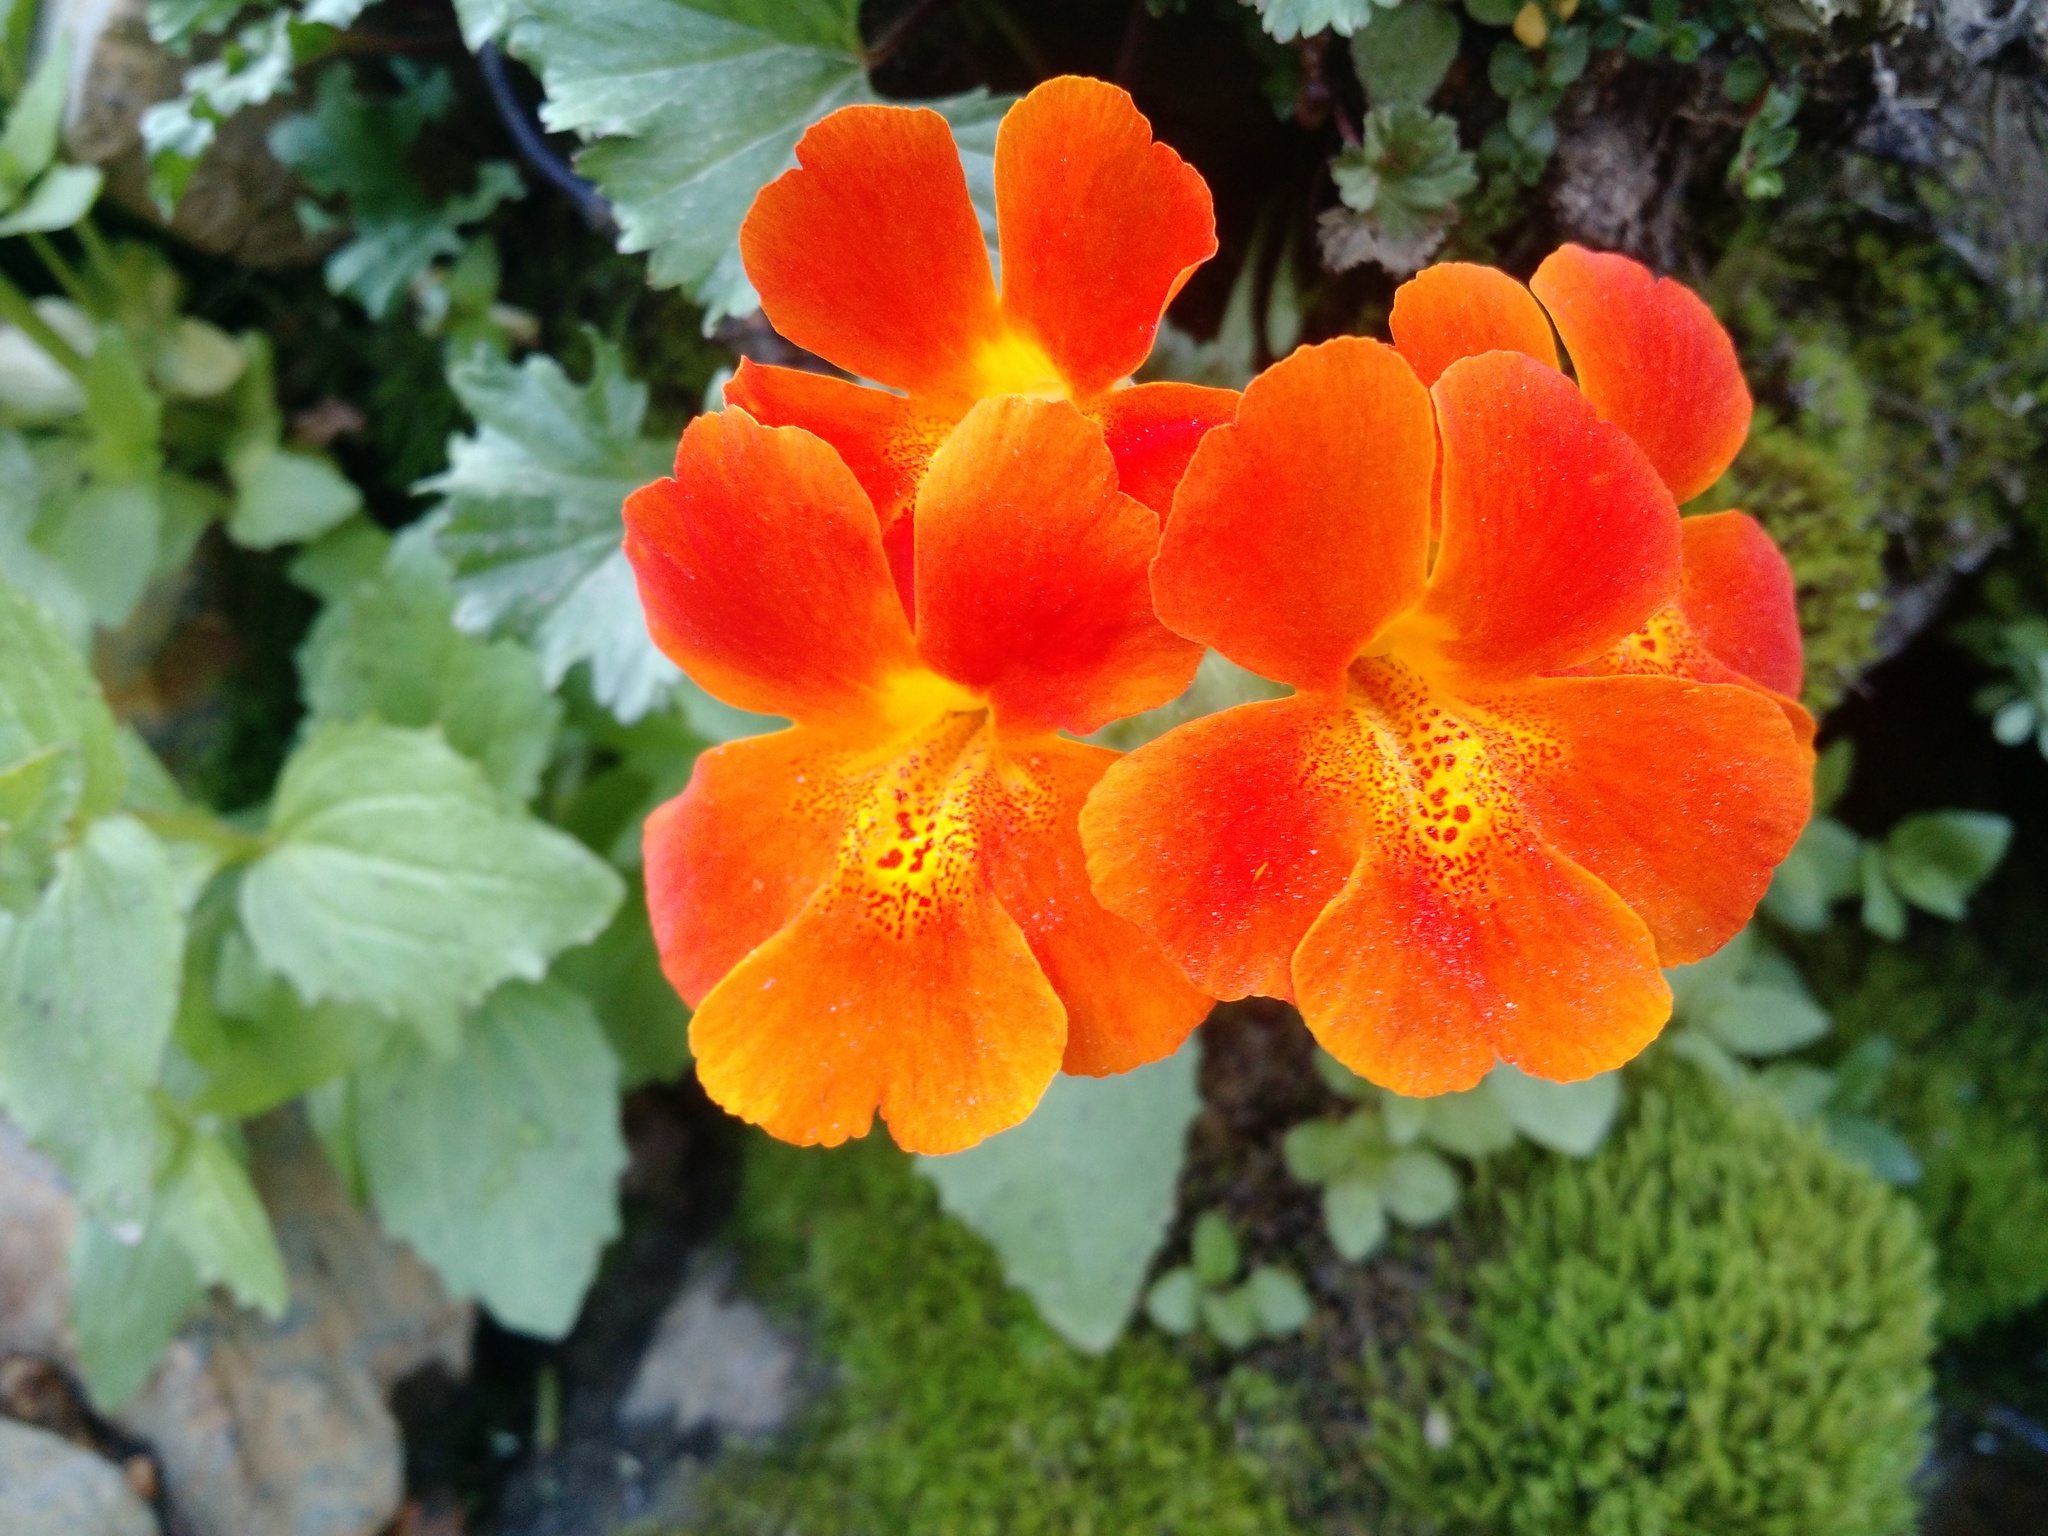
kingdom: Plantae
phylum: Tracheophyta
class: Magnoliopsida
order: Lamiales
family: Phrymaceae
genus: Erythranthe
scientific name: Erythranthe cuprea
